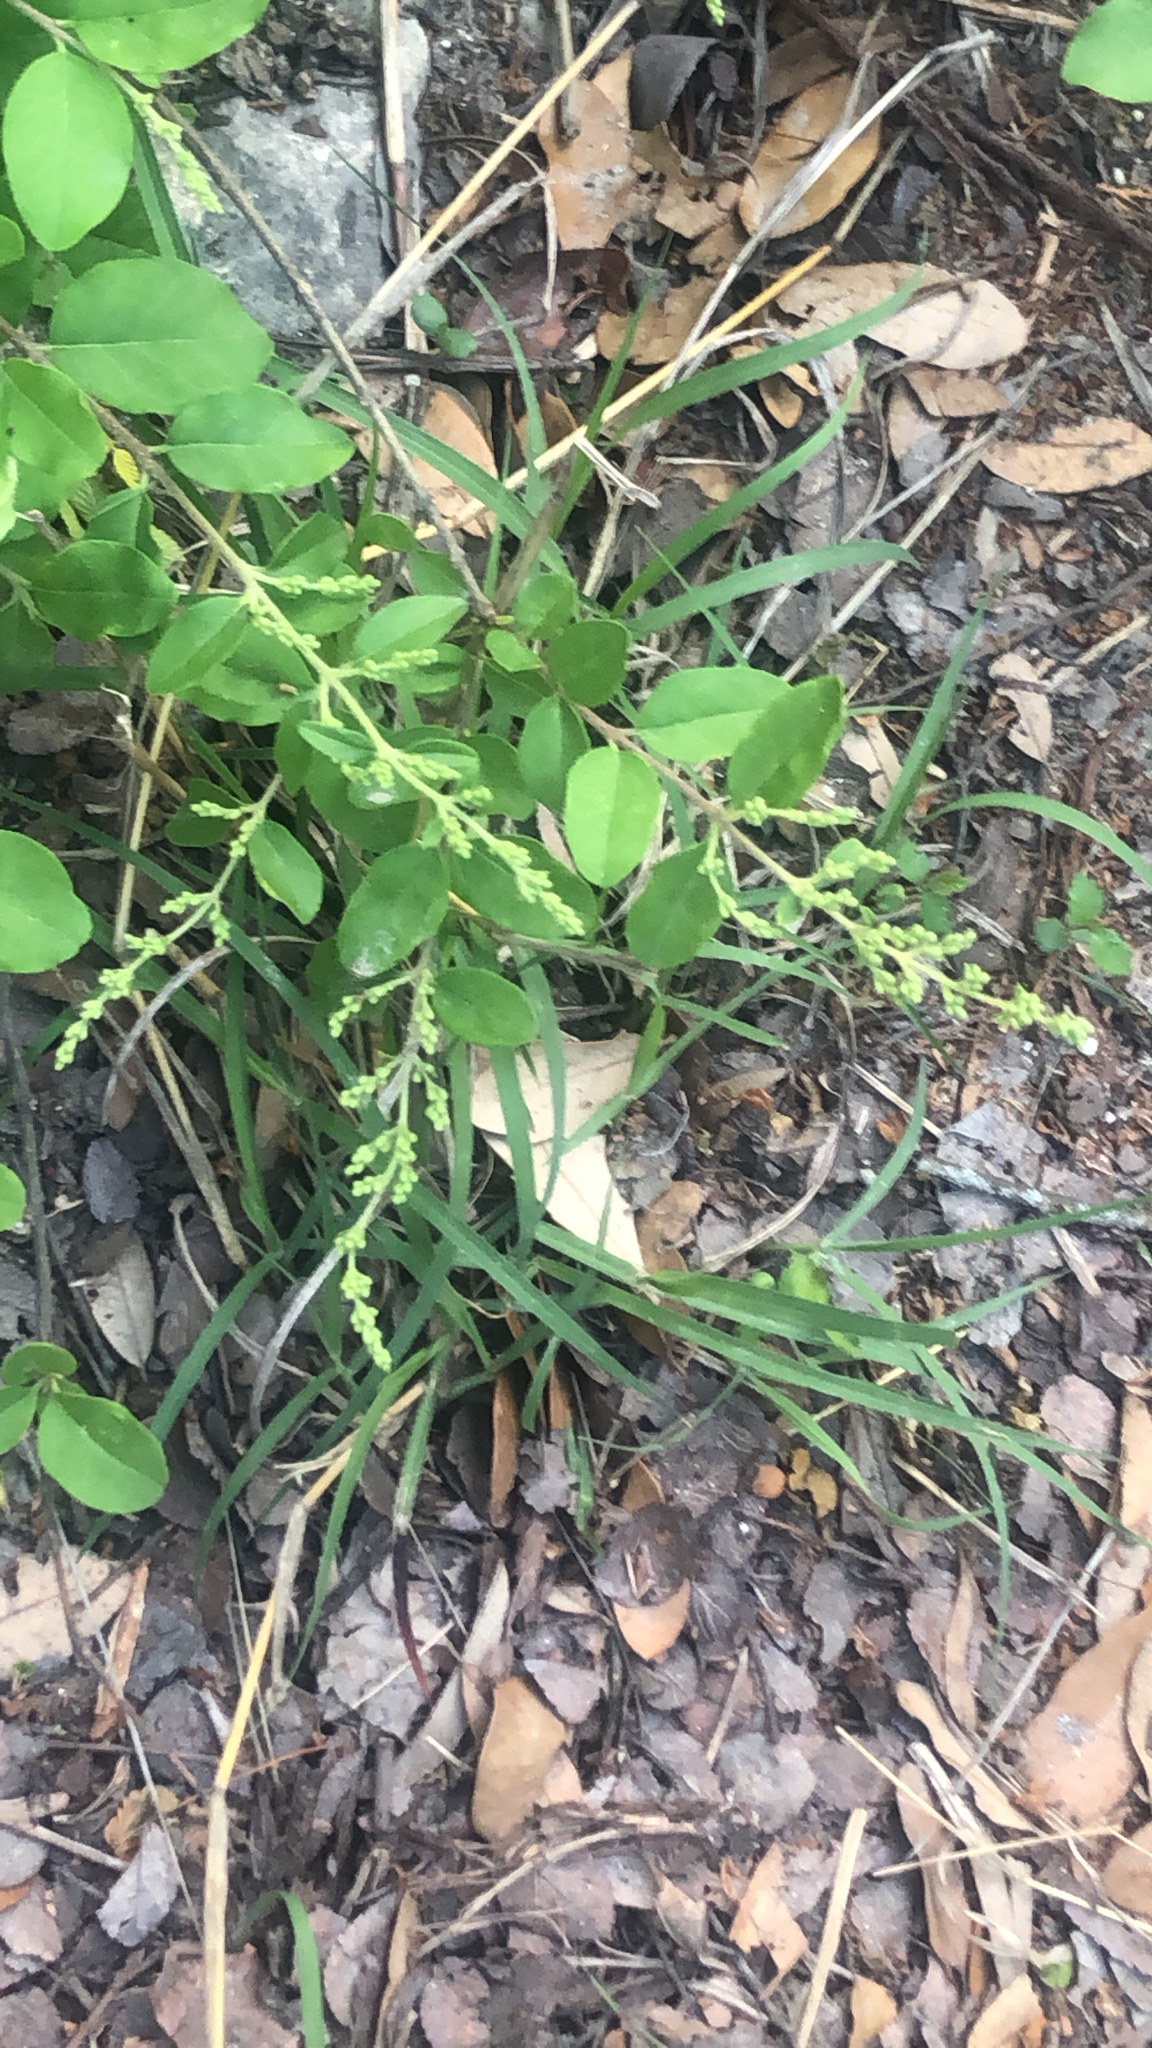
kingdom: Plantae
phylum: Tracheophyta
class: Magnoliopsida
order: Lamiales
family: Oleaceae
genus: Ligustrum
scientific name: Ligustrum sinense
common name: Chinese privet
